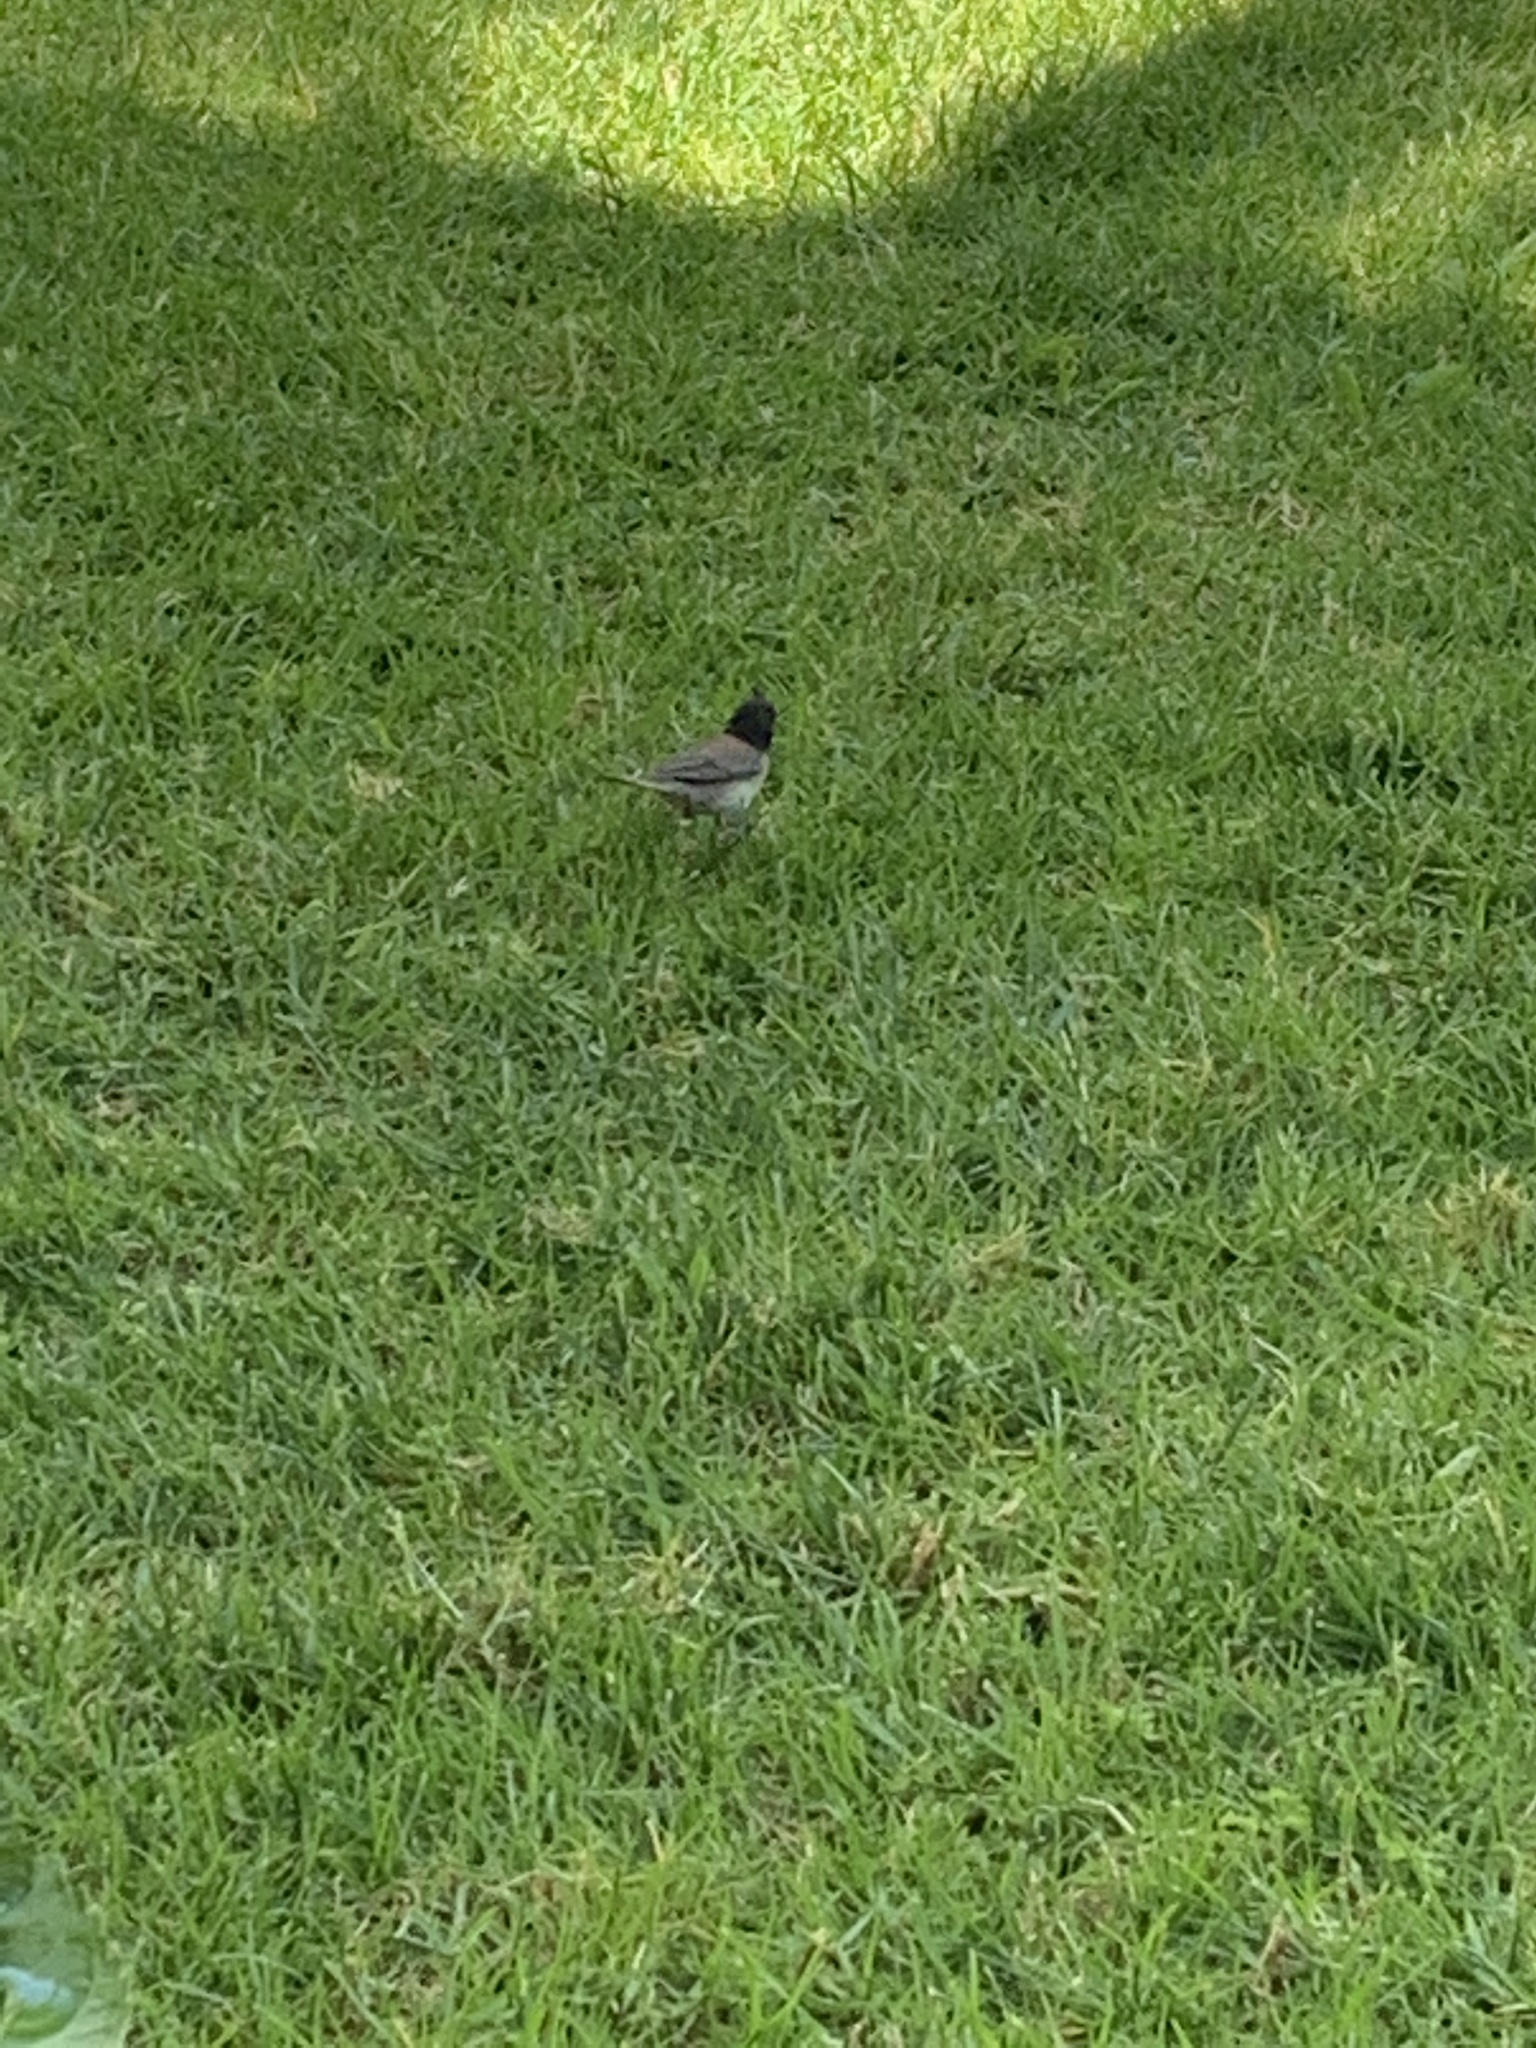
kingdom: Animalia
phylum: Chordata
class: Aves
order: Passeriformes
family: Passerellidae
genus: Junco
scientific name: Junco hyemalis
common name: Dark-eyed junco
